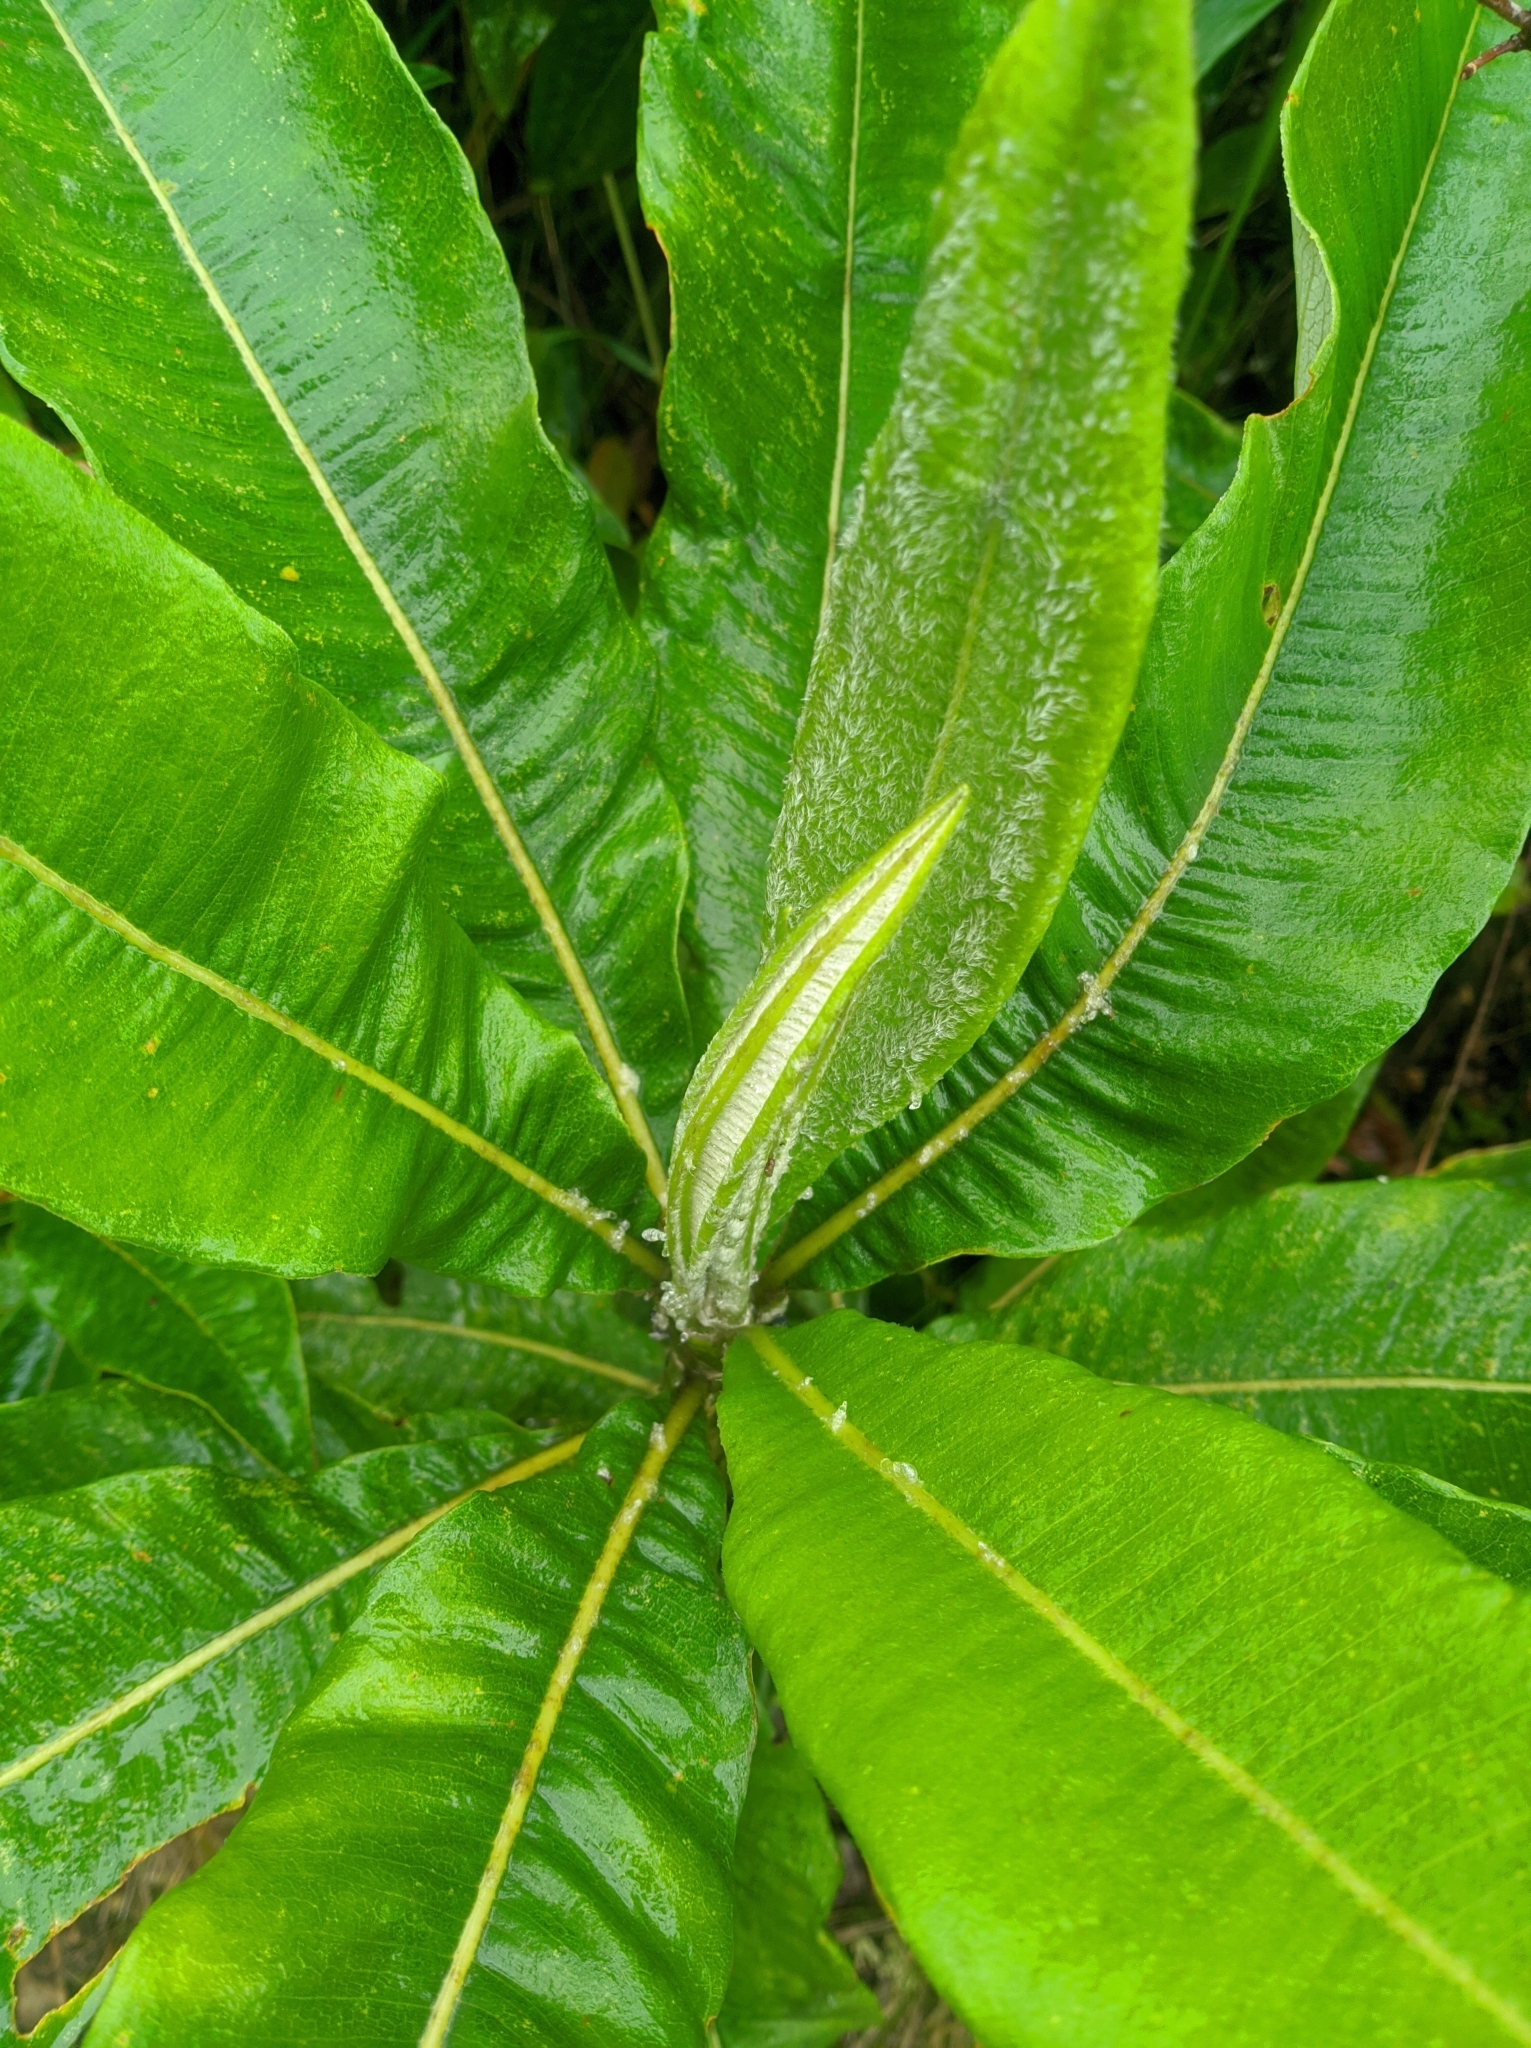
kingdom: Plantae
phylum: Tracheophyta
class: Magnoliopsida
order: Asterales
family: Asteraceae
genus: Espeletia
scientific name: Espeletia neriifolia
